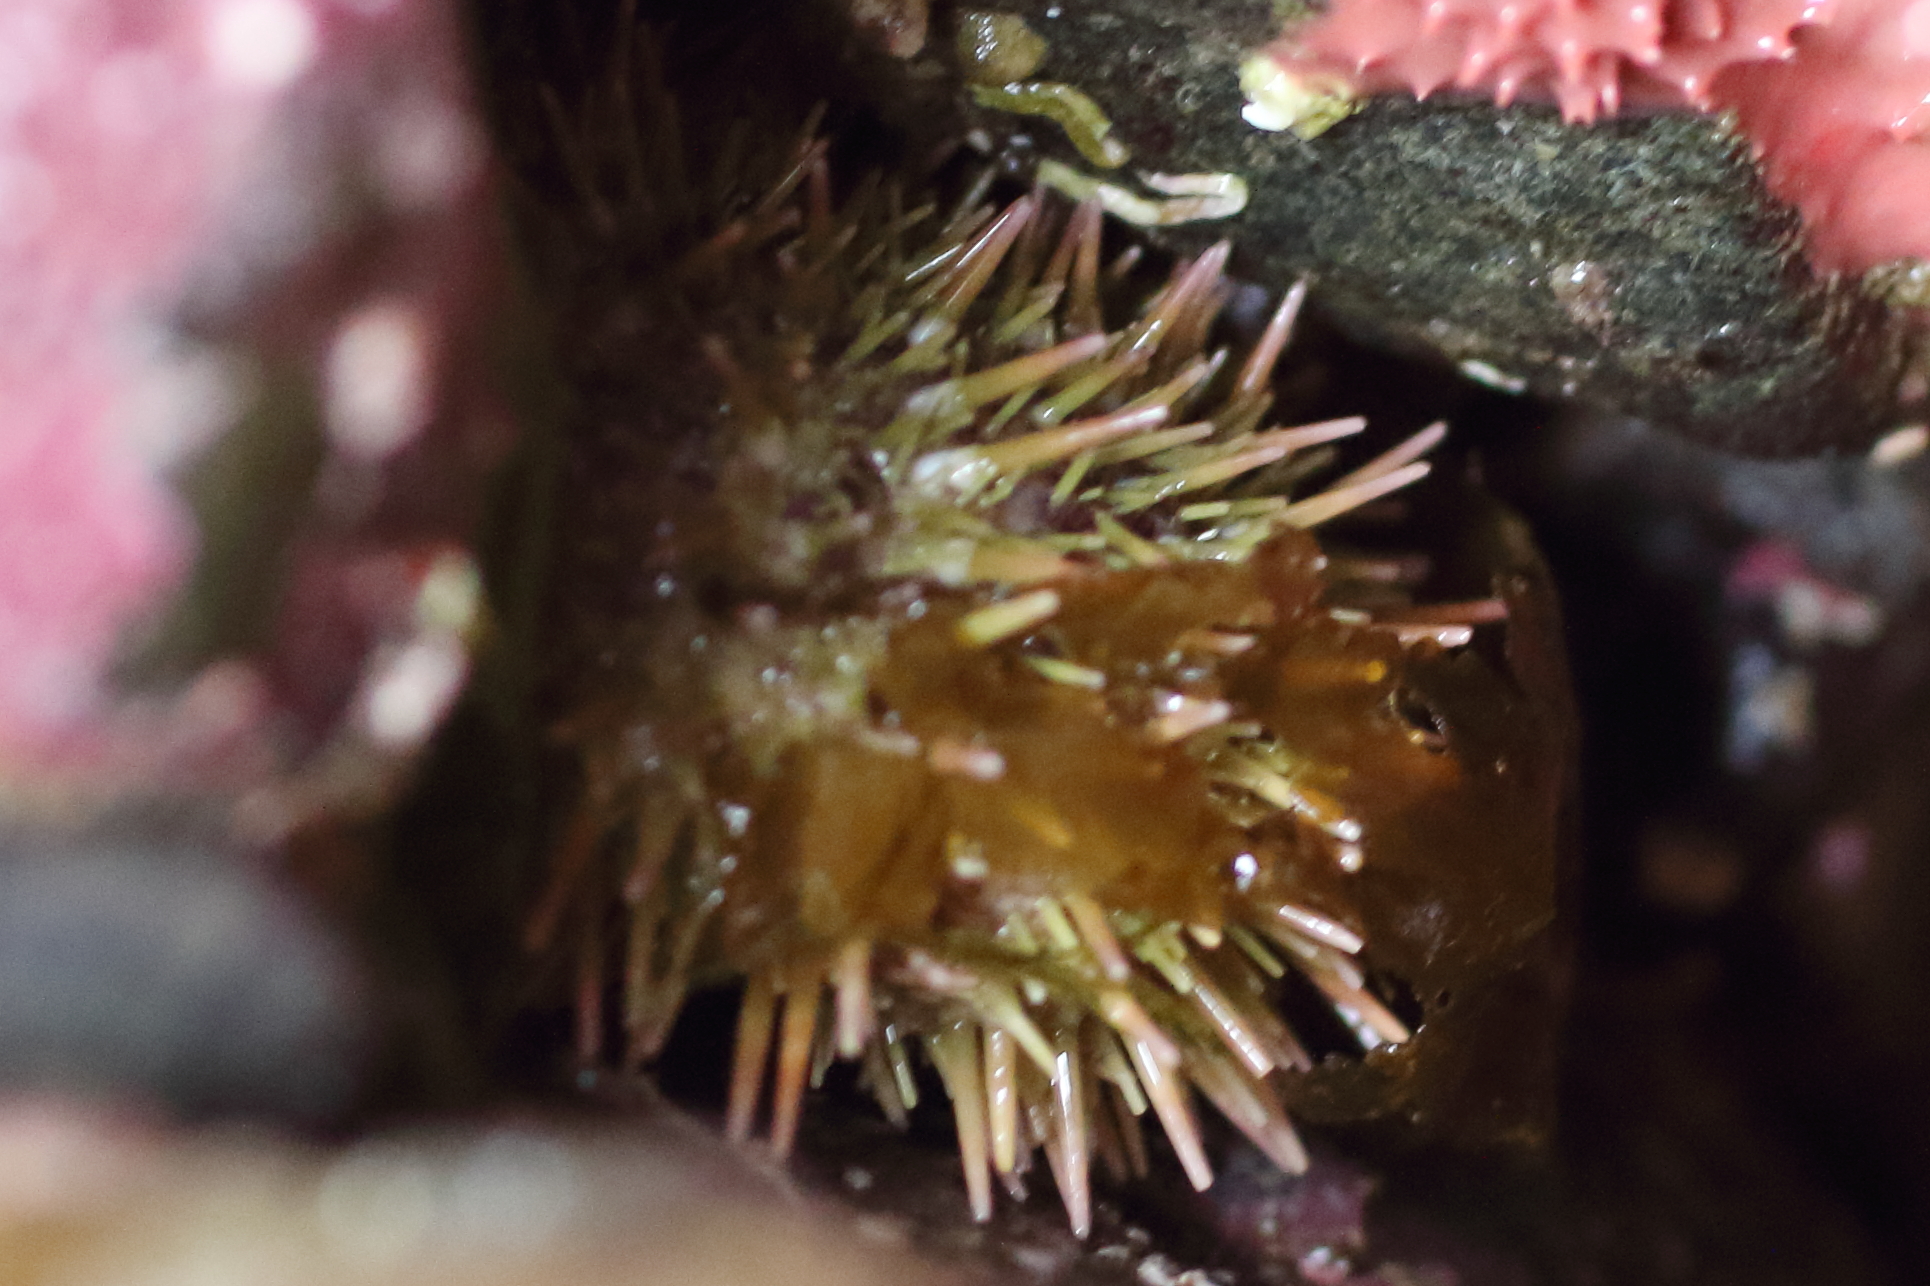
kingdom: Animalia
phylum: Echinodermata
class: Echinoidea
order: Camarodonta
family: Strongylocentrotidae
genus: Strongylocentrotus
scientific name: Strongylocentrotus droebachiensis
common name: Northern sea urchin
